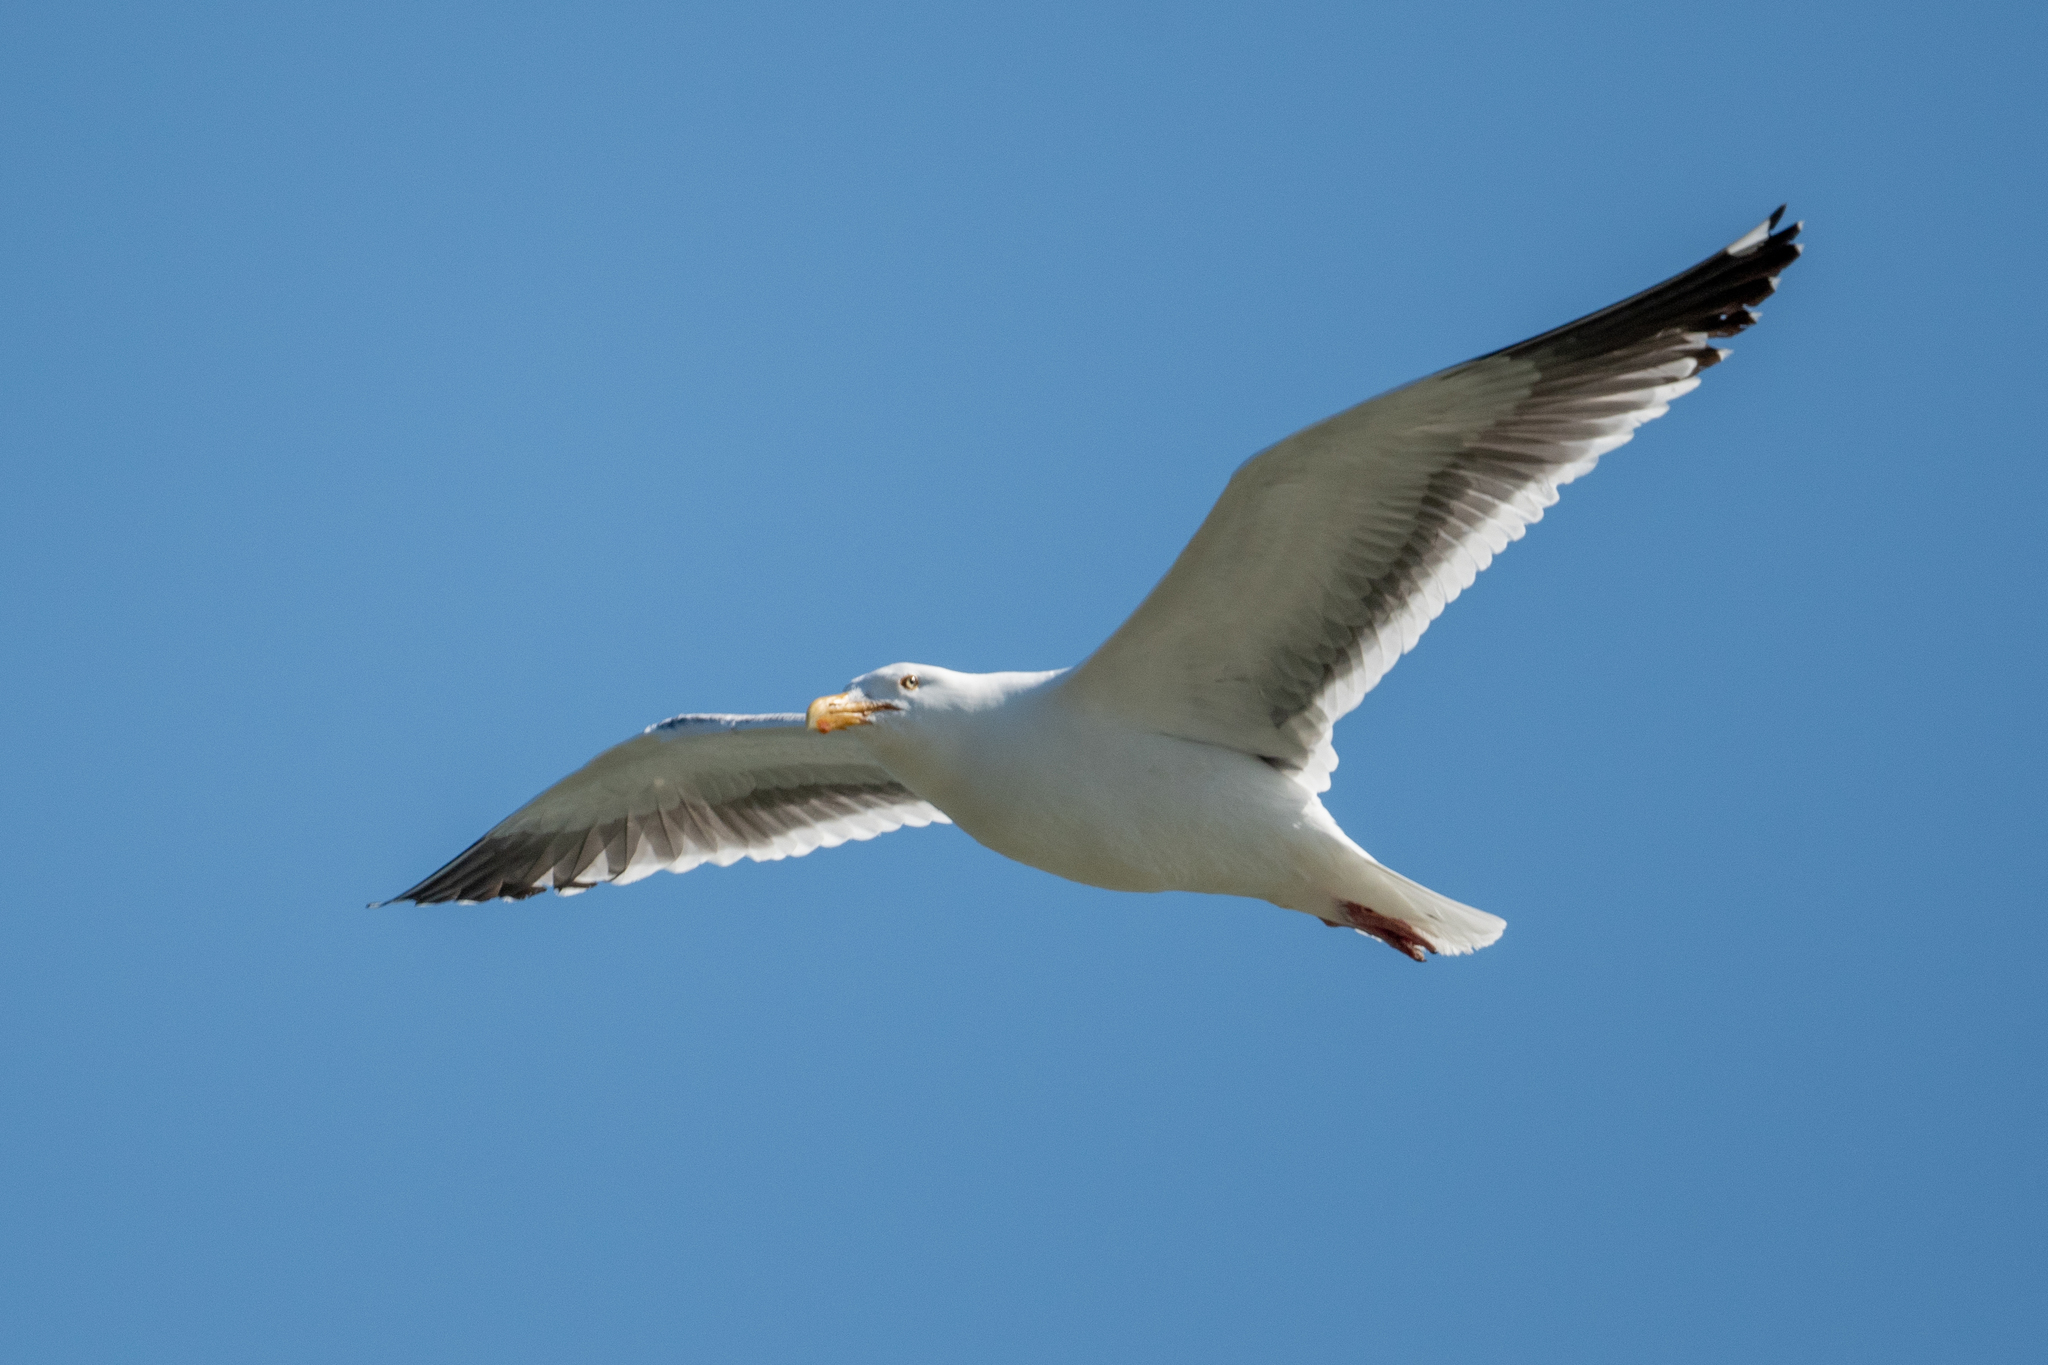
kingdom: Animalia
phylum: Chordata
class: Aves
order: Charadriiformes
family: Laridae
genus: Larus
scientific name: Larus occidentalis
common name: Western gull
